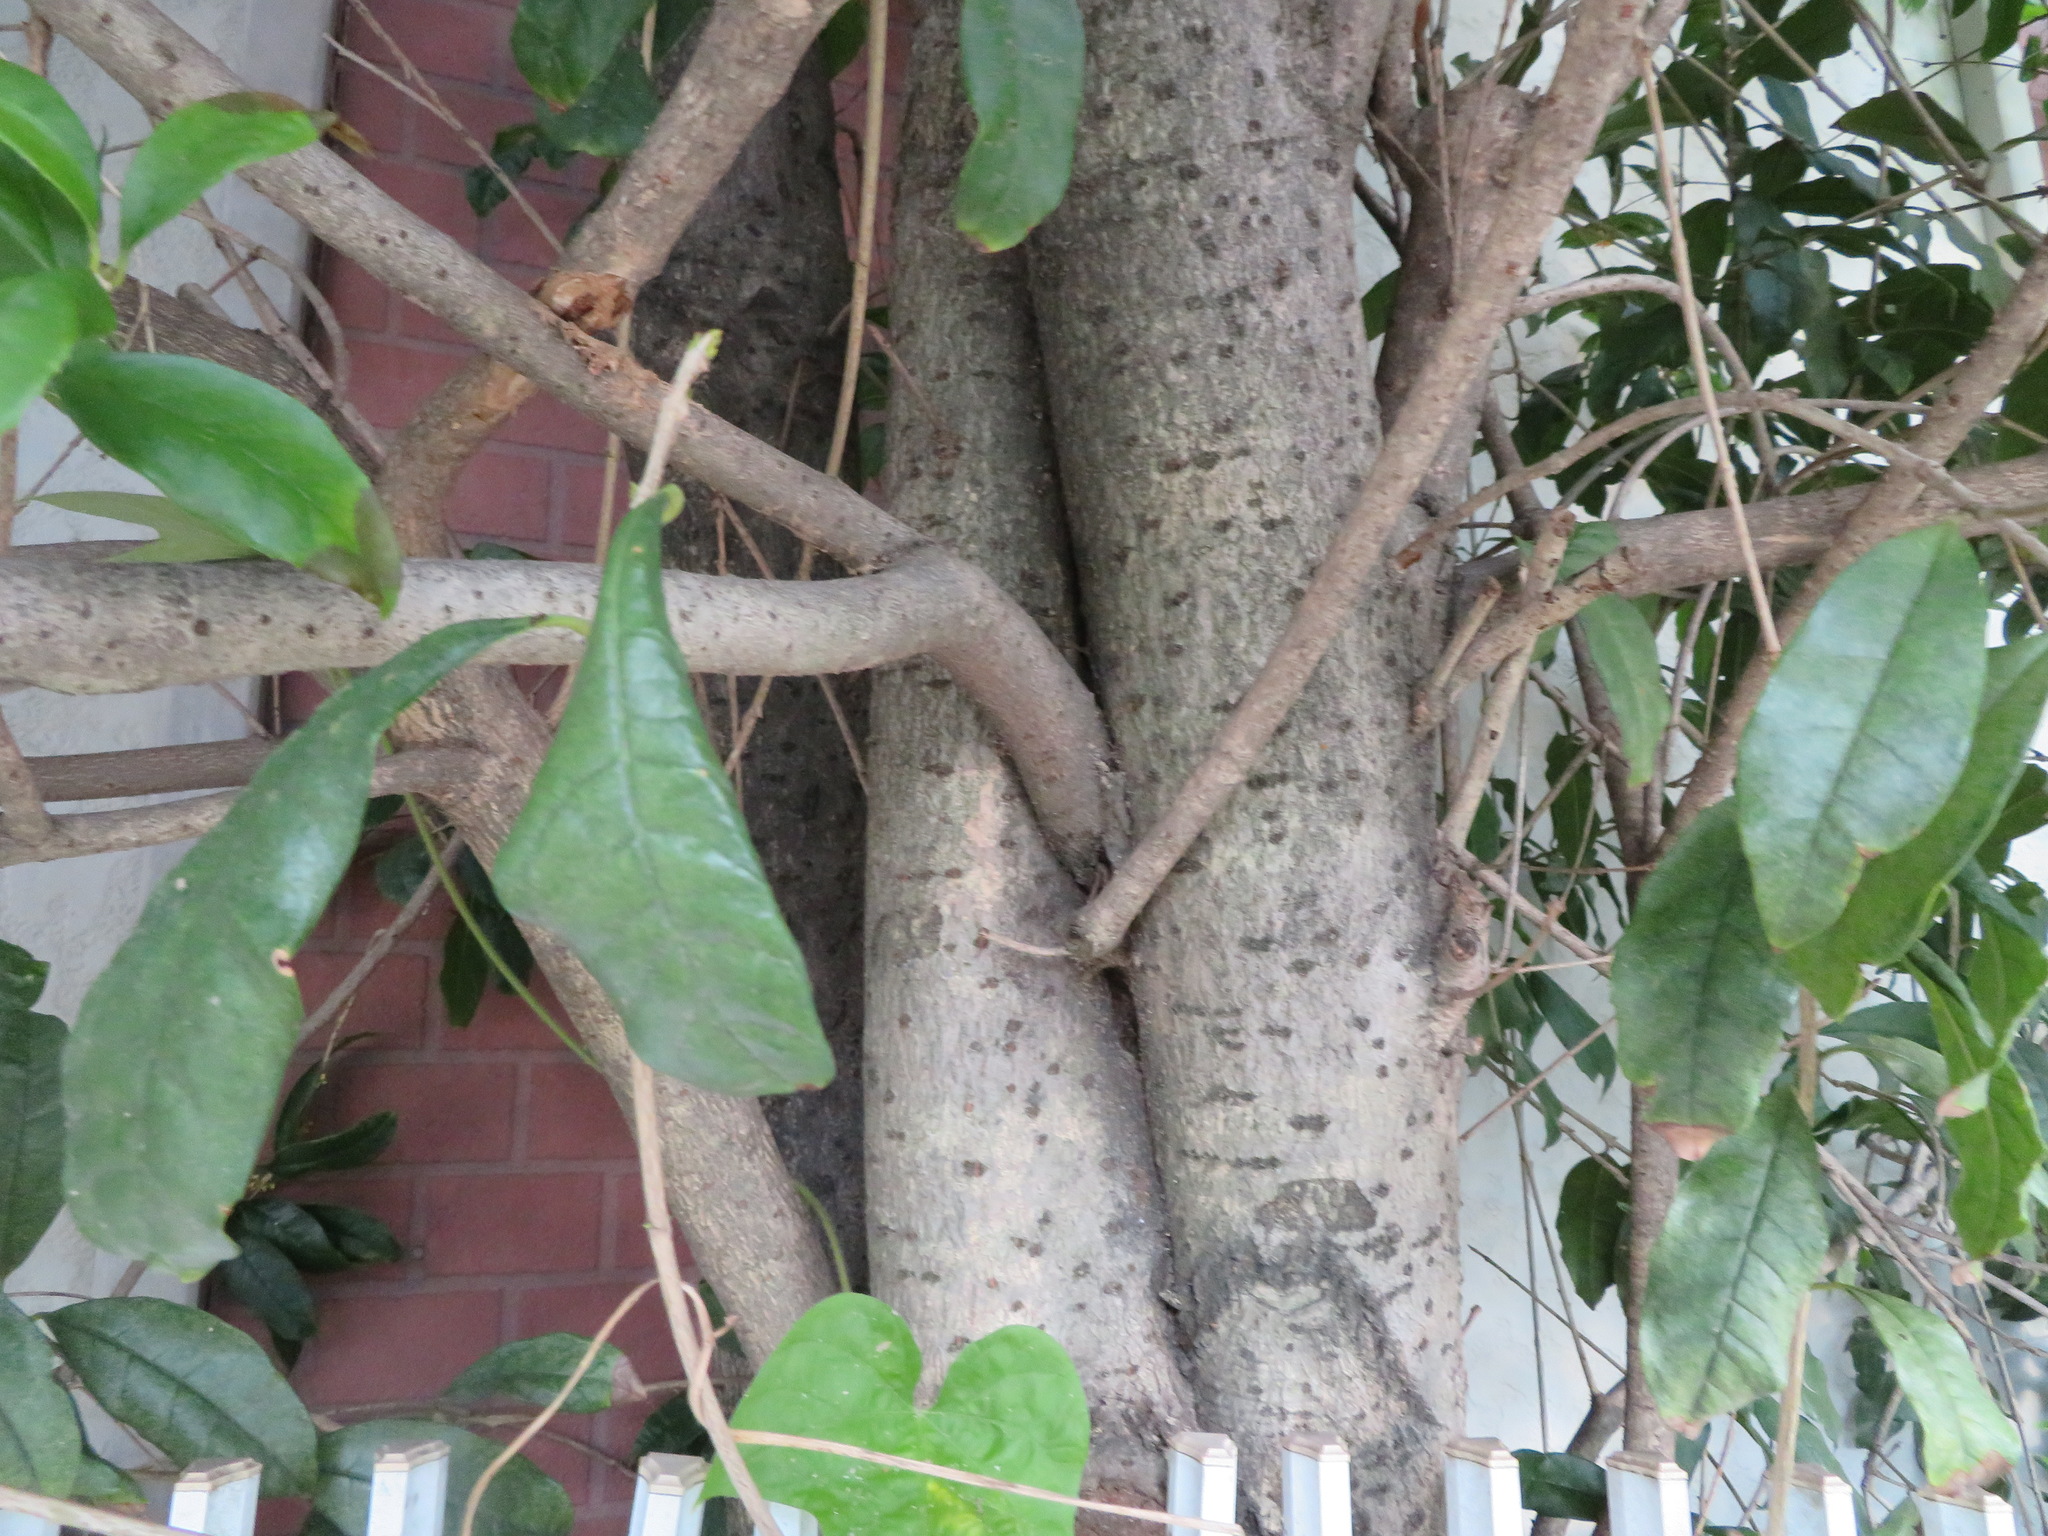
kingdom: Plantae
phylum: Tracheophyta
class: Magnoliopsida
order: Lamiales
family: Oleaceae
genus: Osmanthus
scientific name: Osmanthus fragrans
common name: Sweet osmanthus
